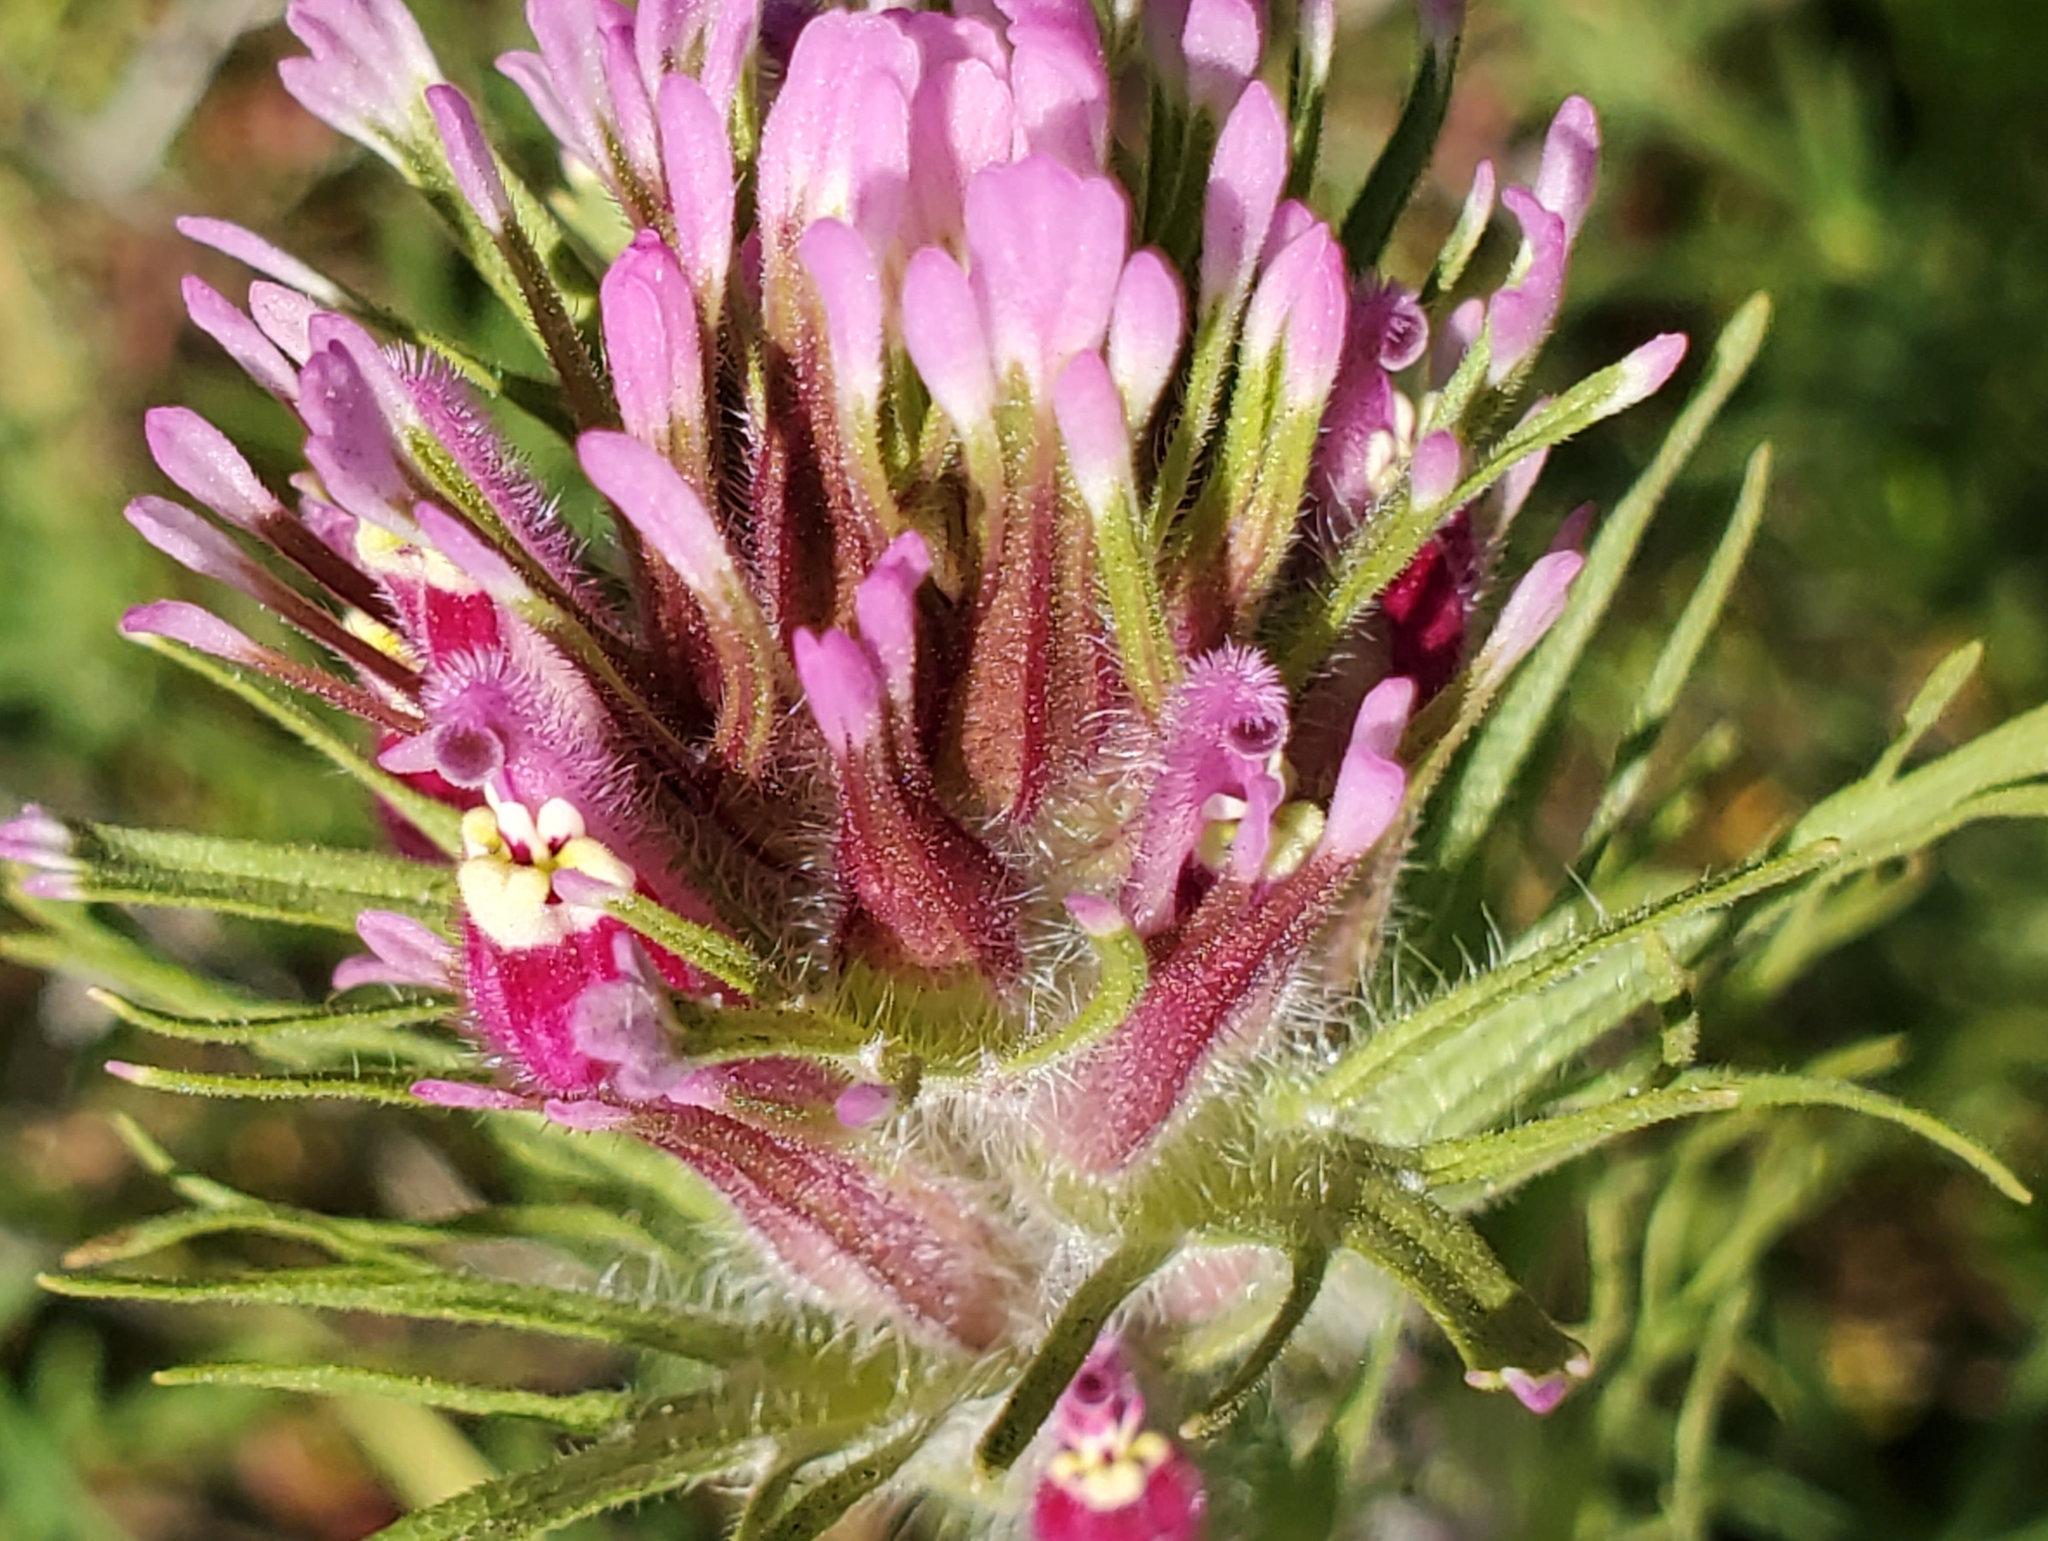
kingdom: Plantae
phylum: Tracheophyta
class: Magnoliopsida
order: Lamiales
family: Orobanchaceae
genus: Castilleja
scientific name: Castilleja exserta
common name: Purple owl-clover
